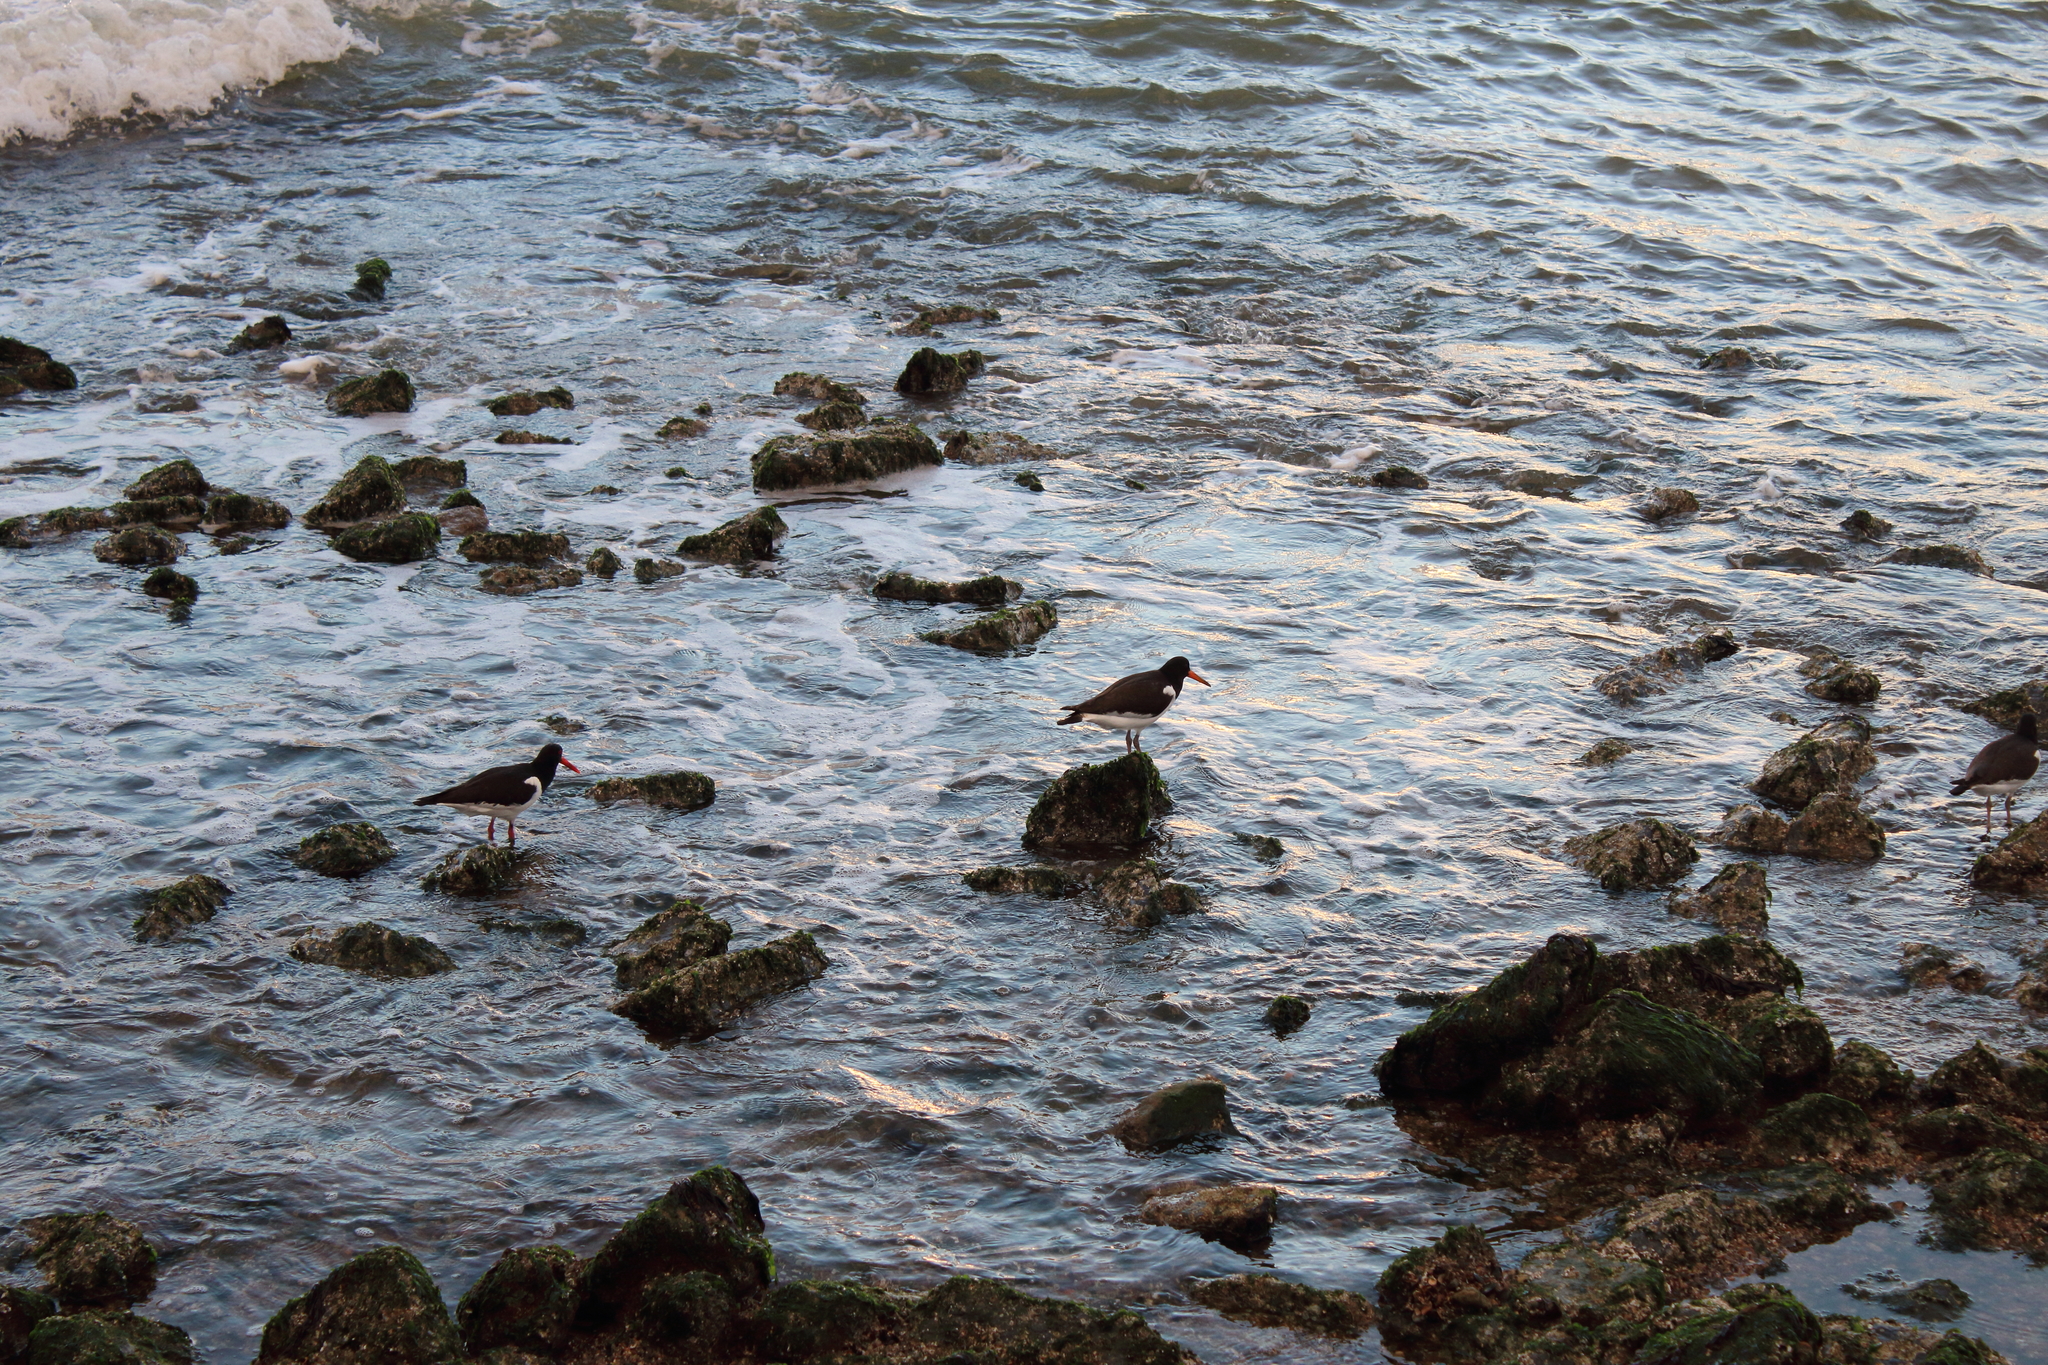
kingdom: Animalia
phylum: Chordata
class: Aves
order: Charadriiformes
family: Haematopodidae
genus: Haematopus
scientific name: Haematopus ostralegus
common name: Eurasian oystercatcher
